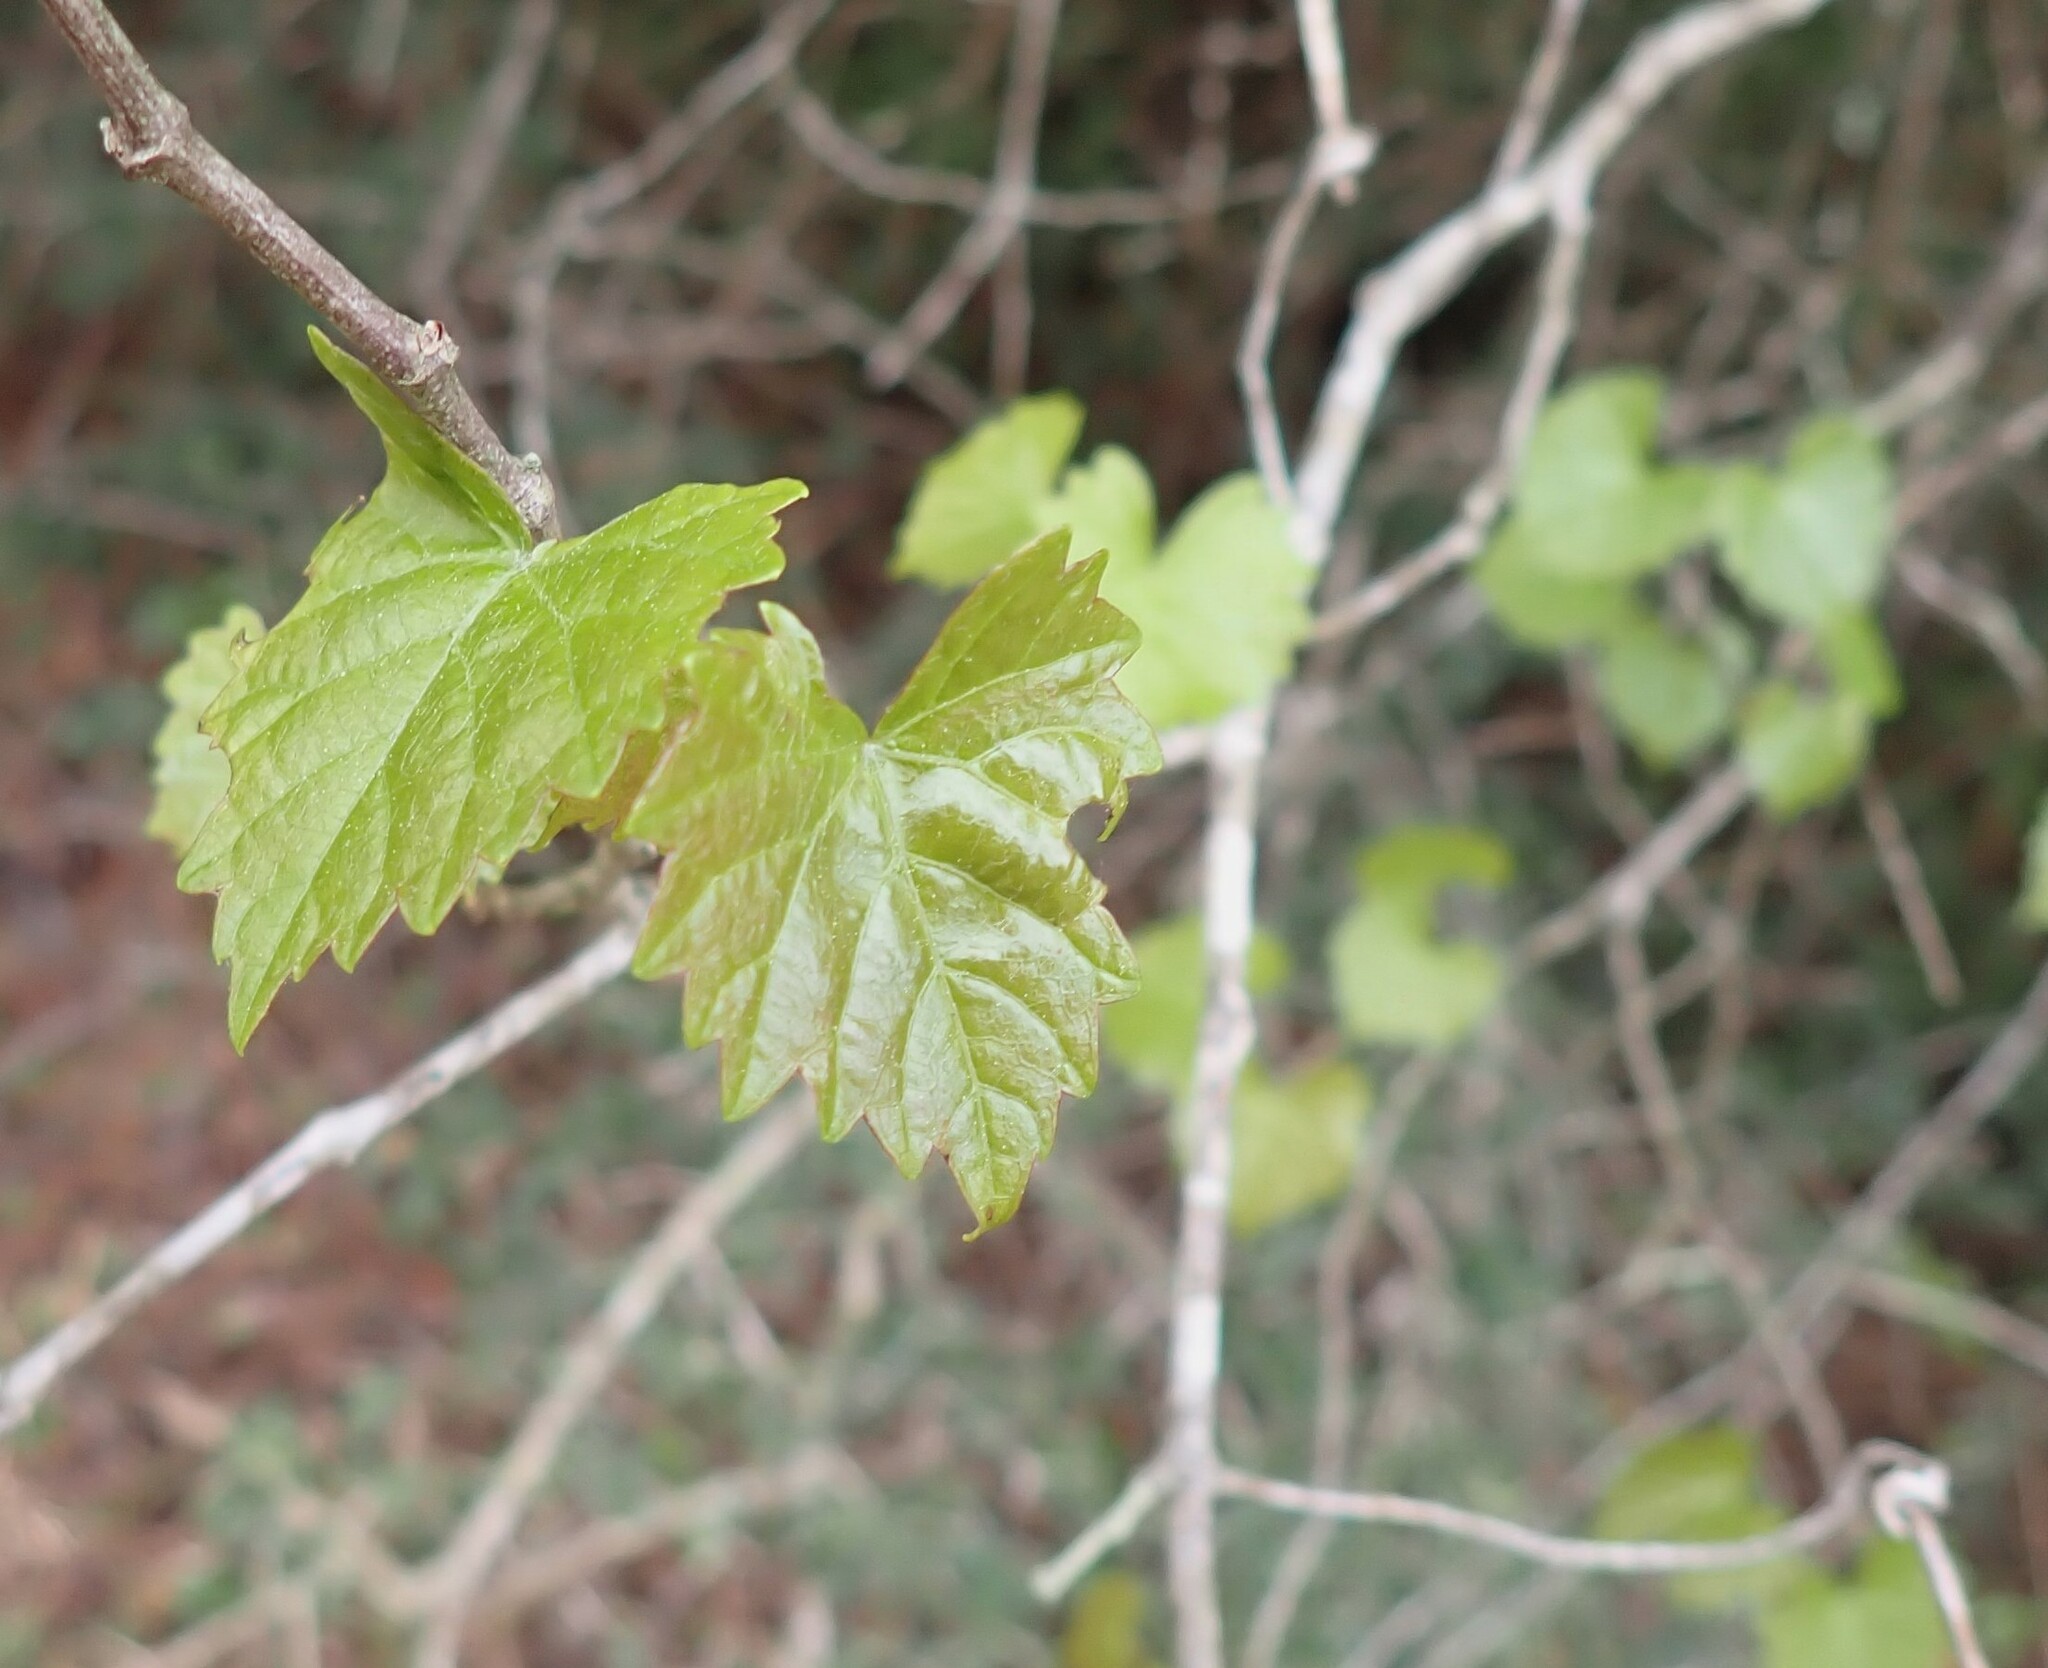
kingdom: Plantae
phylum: Tracheophyta
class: Magnoliopsida
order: Vitales
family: Vitaceae
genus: Vitis
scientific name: Vitis rotundifolia
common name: Muscadine grape
